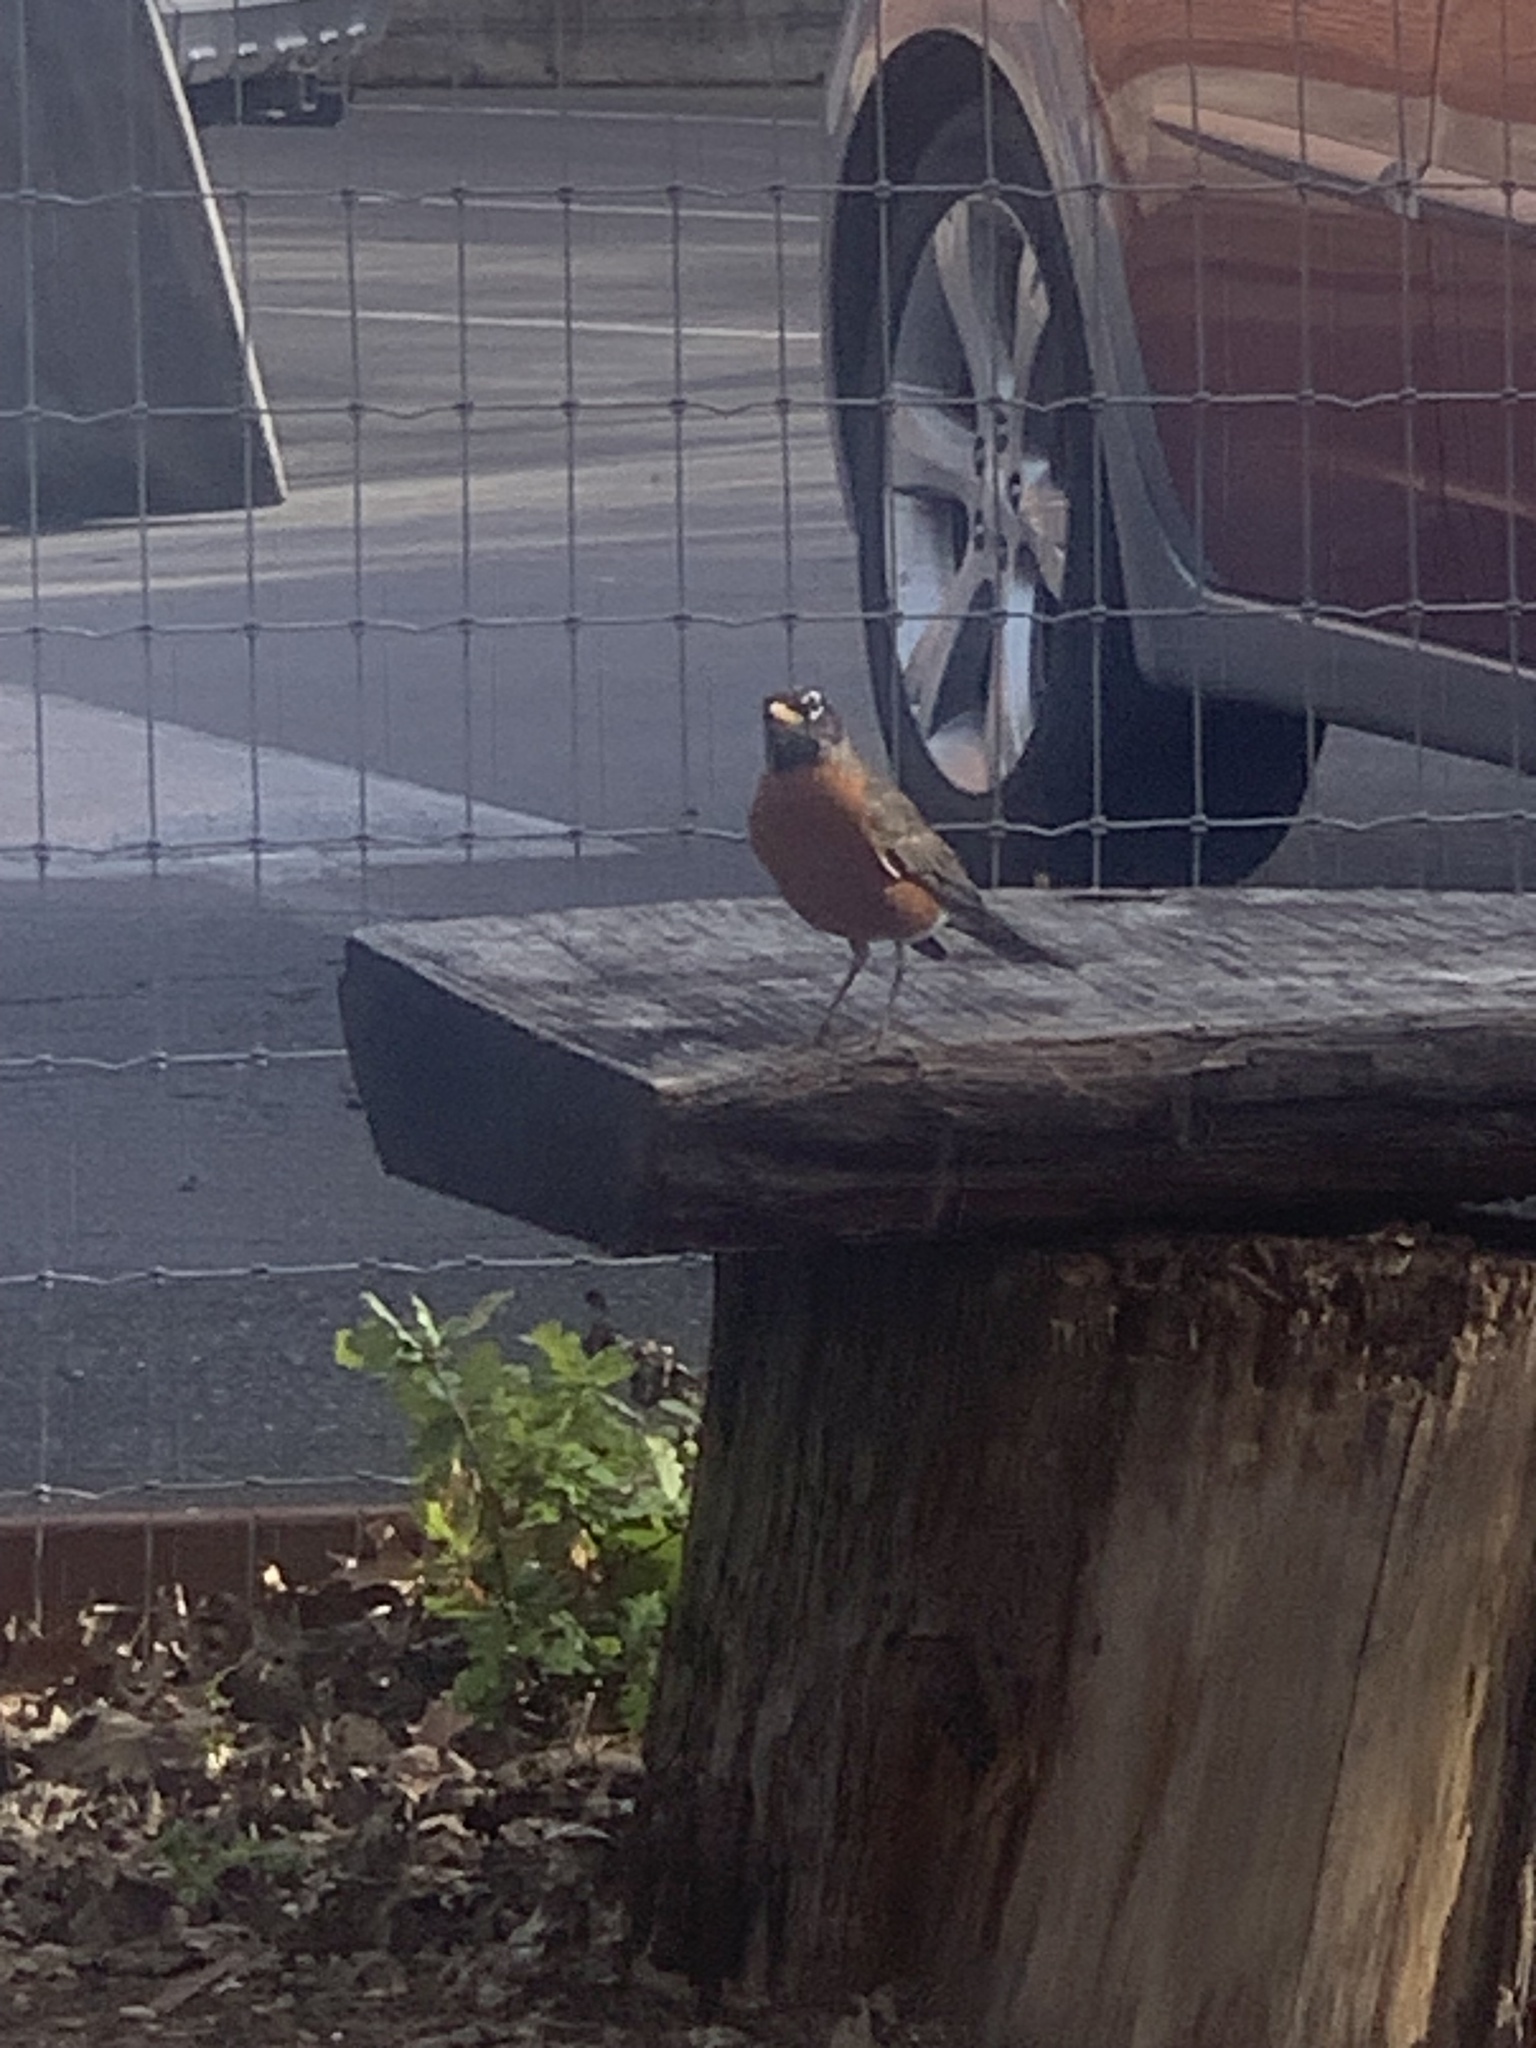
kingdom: Animalia
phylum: Chordata
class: Aves
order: Passeriformes
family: Turdidae
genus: Turdus
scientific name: Turdus migratorius
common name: American robin
